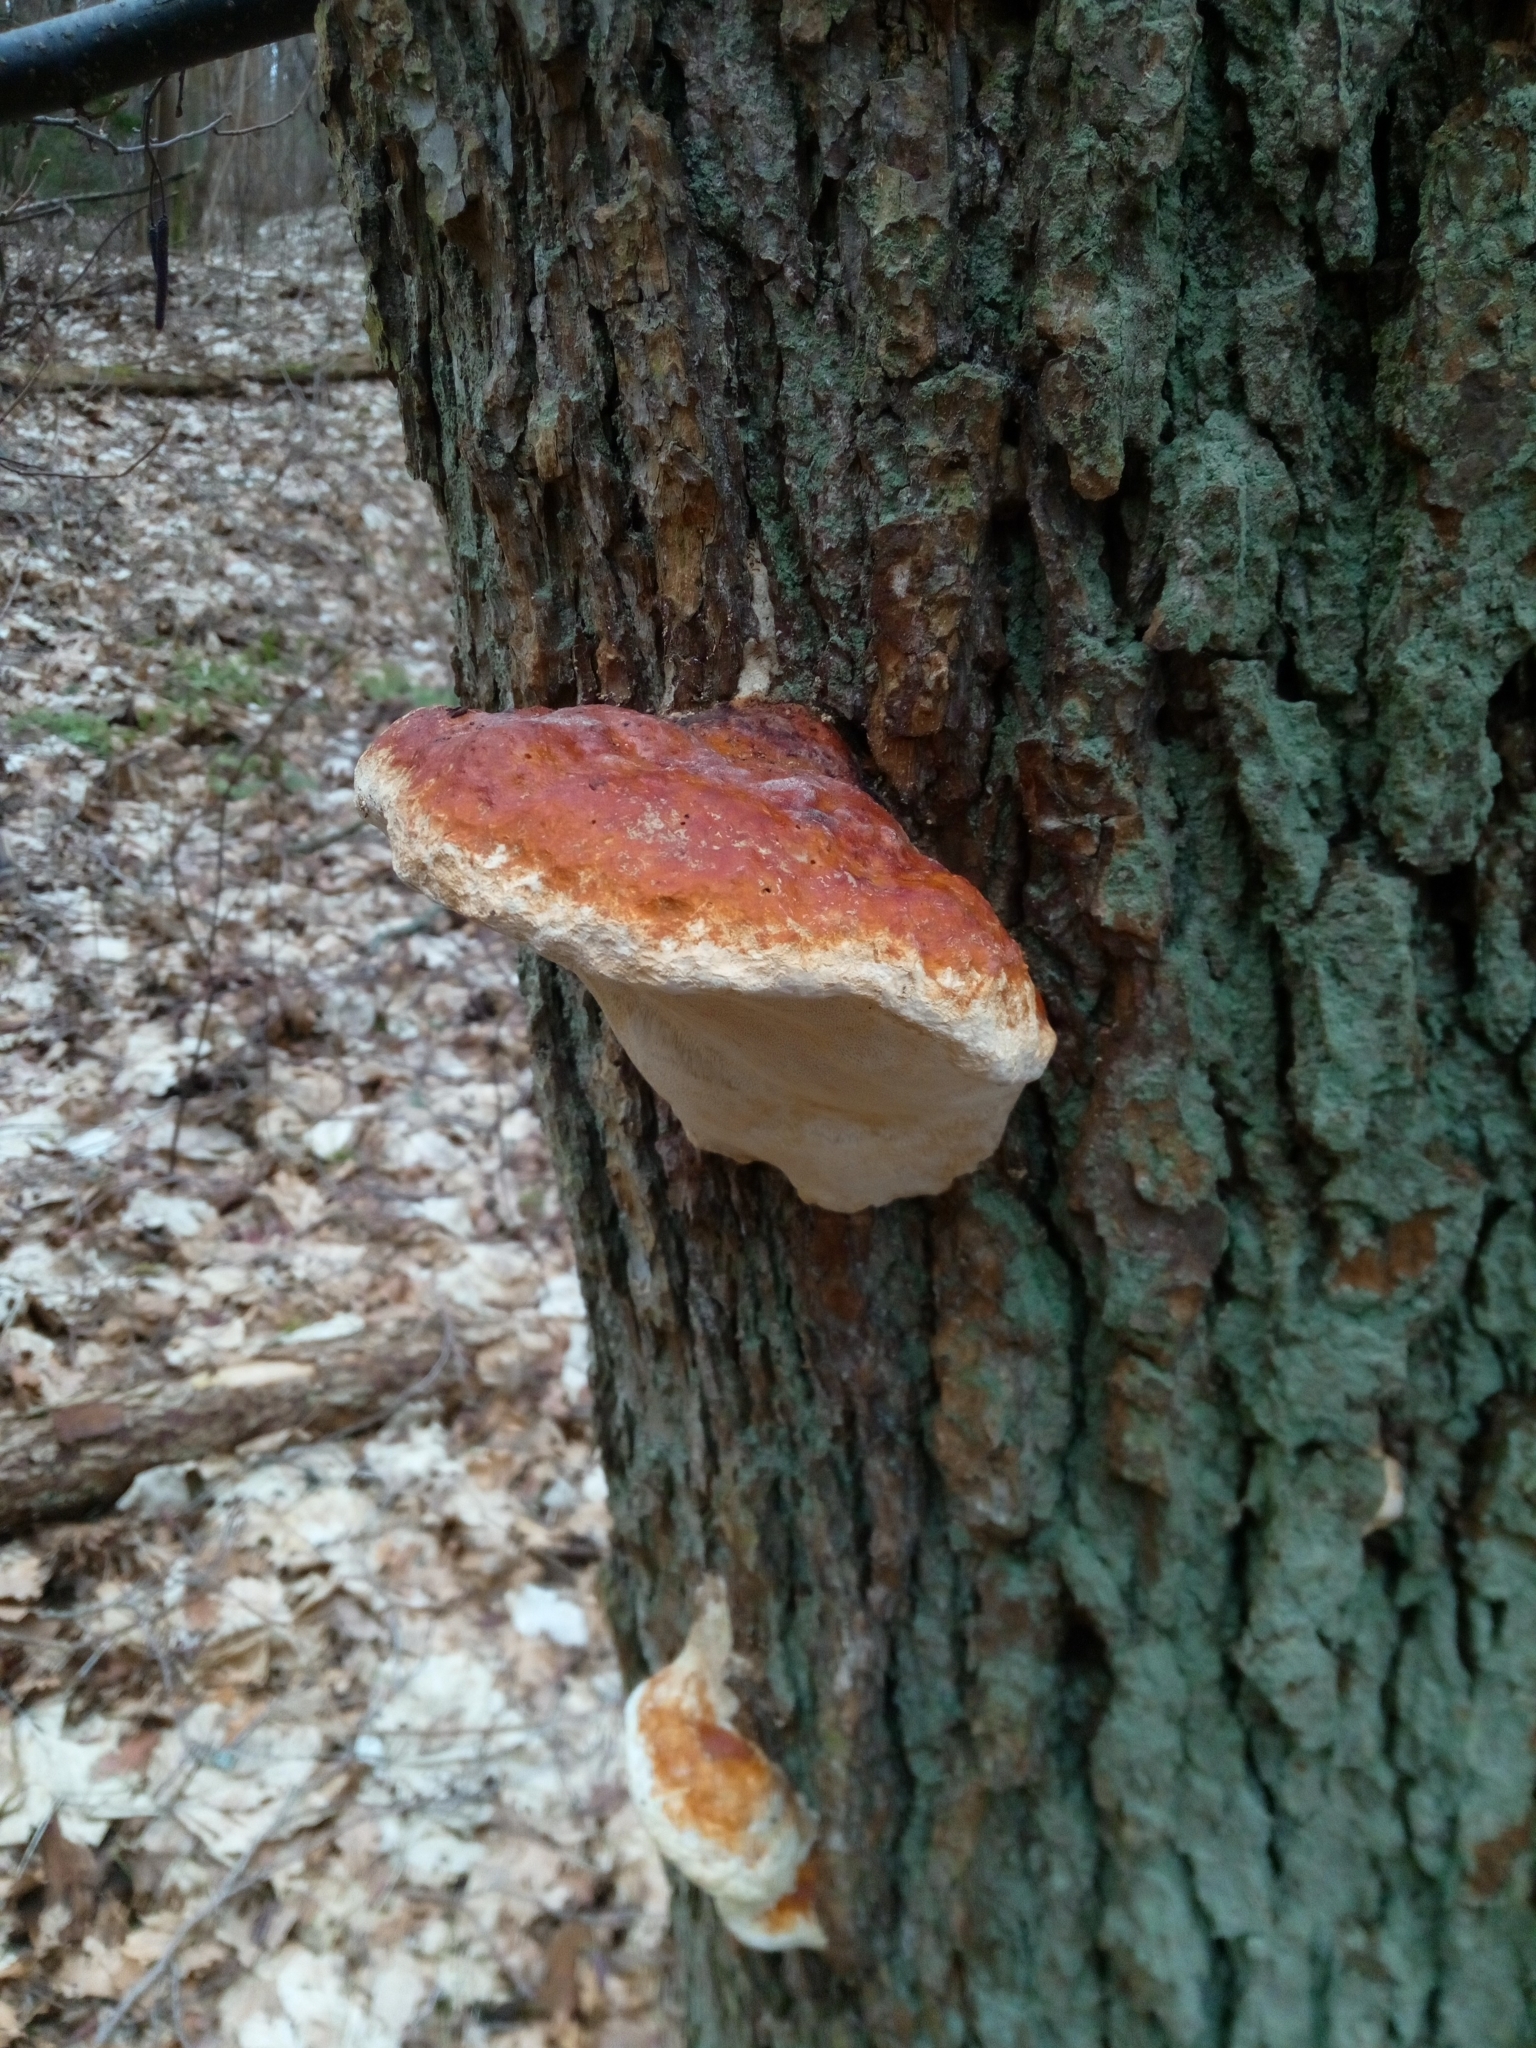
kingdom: Fungi
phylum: Basidiomycota
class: Agaricomycetes
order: Polyporales
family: Fomitopsidaceae
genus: Fomitopsis
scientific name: Fomitopsis pinicola
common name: Red-belted bracket
